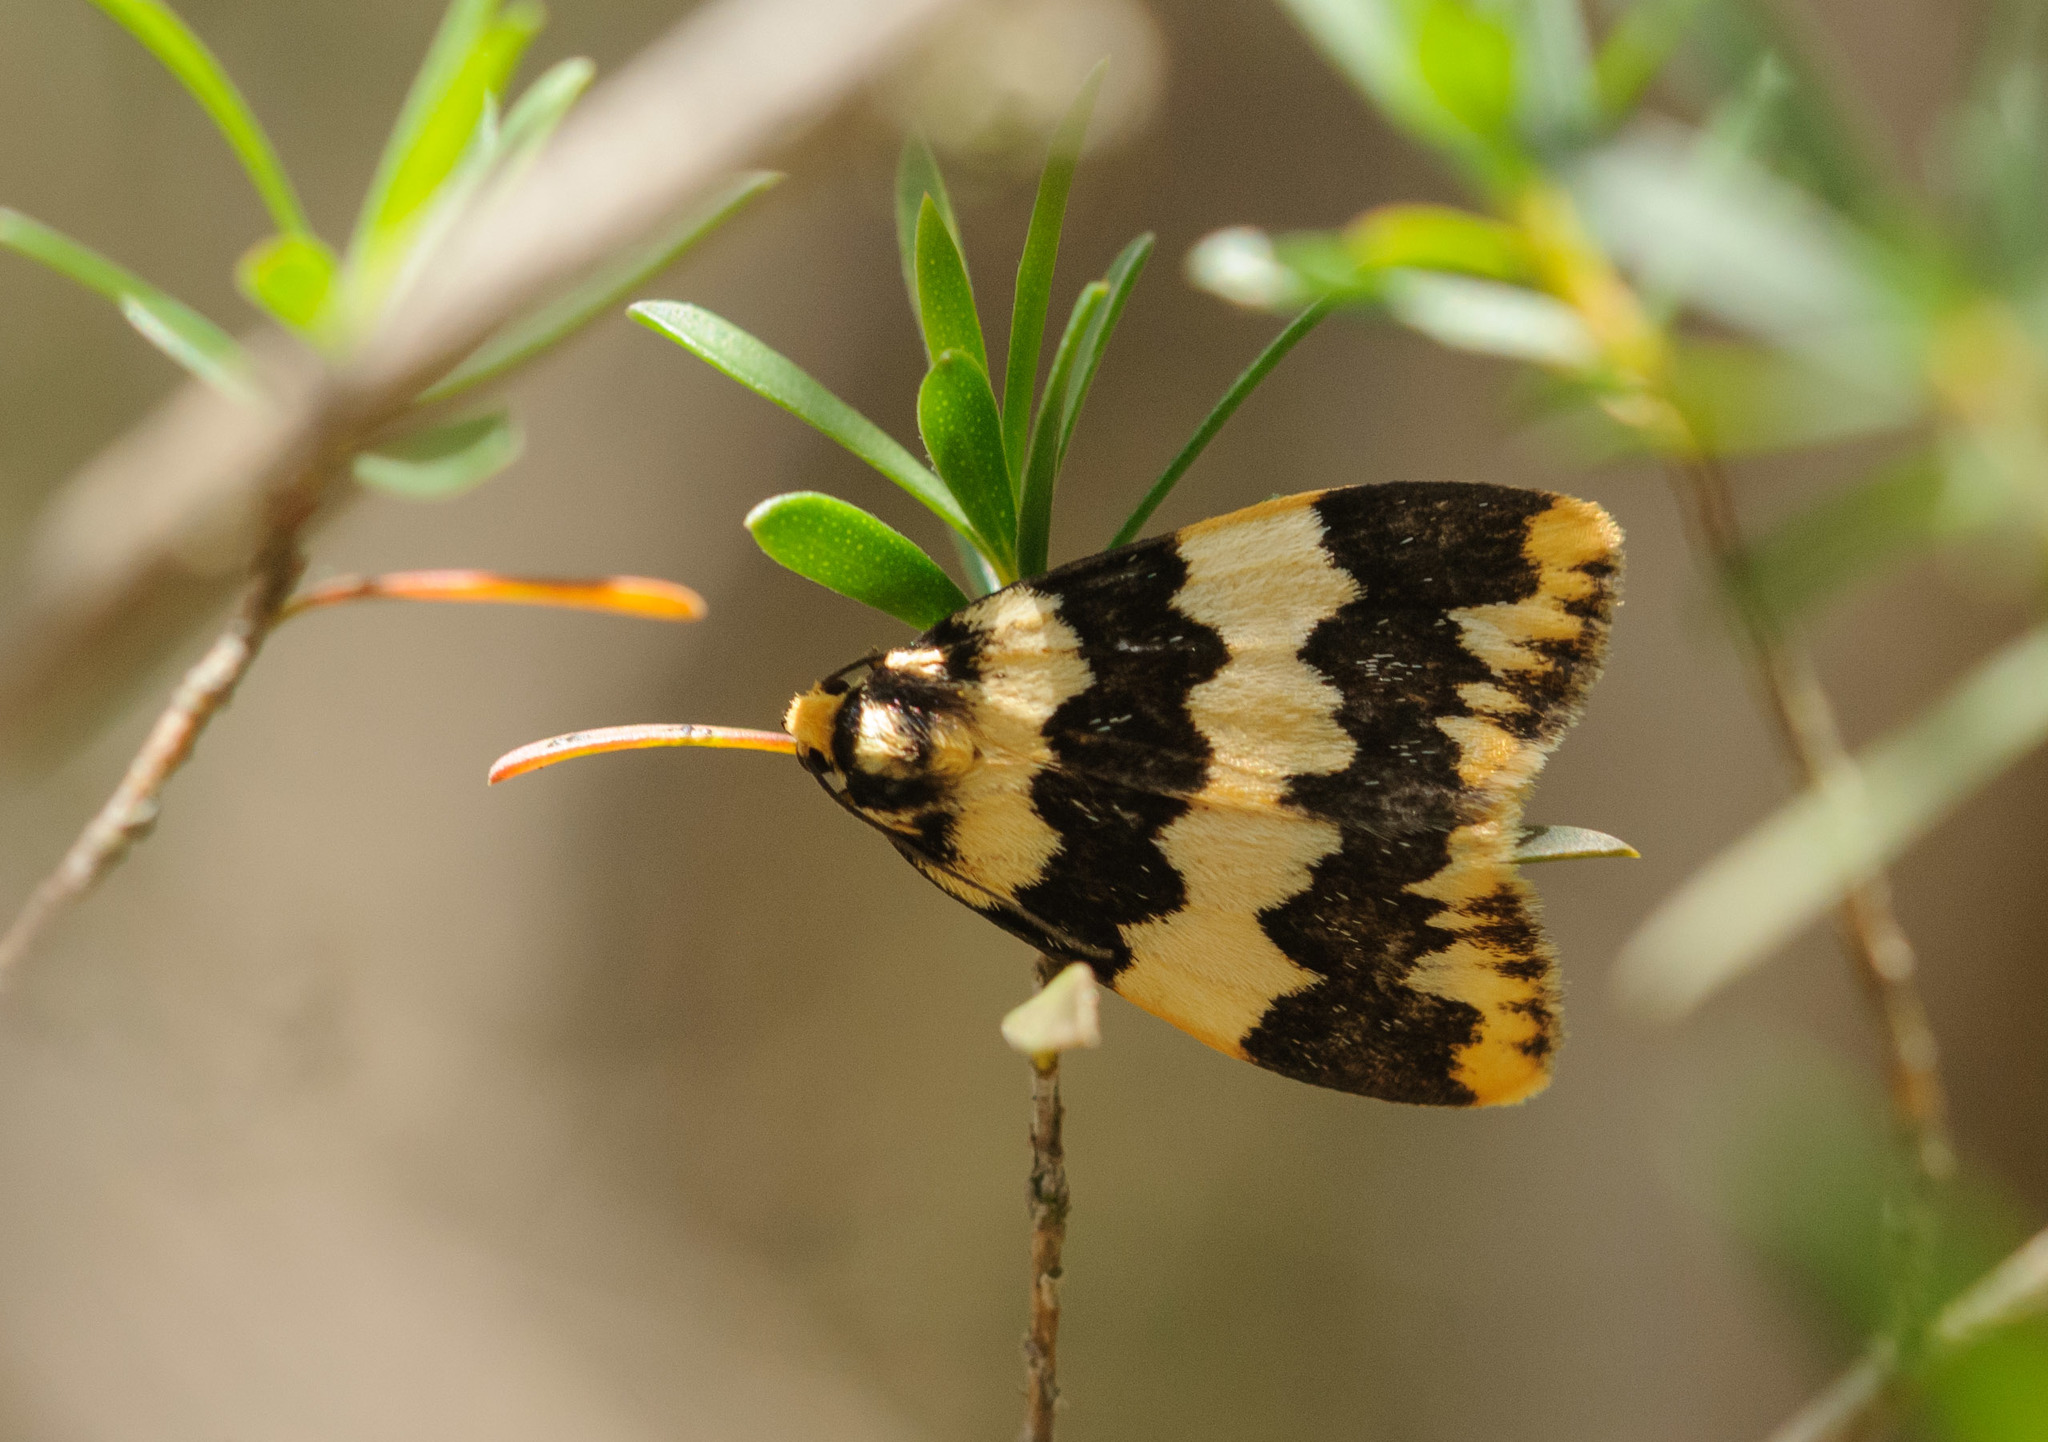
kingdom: Animalia
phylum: Arthropoda
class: Insecta
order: Lepidoptera
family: Erebidae
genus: Termessa
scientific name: Termessa shepherdi
